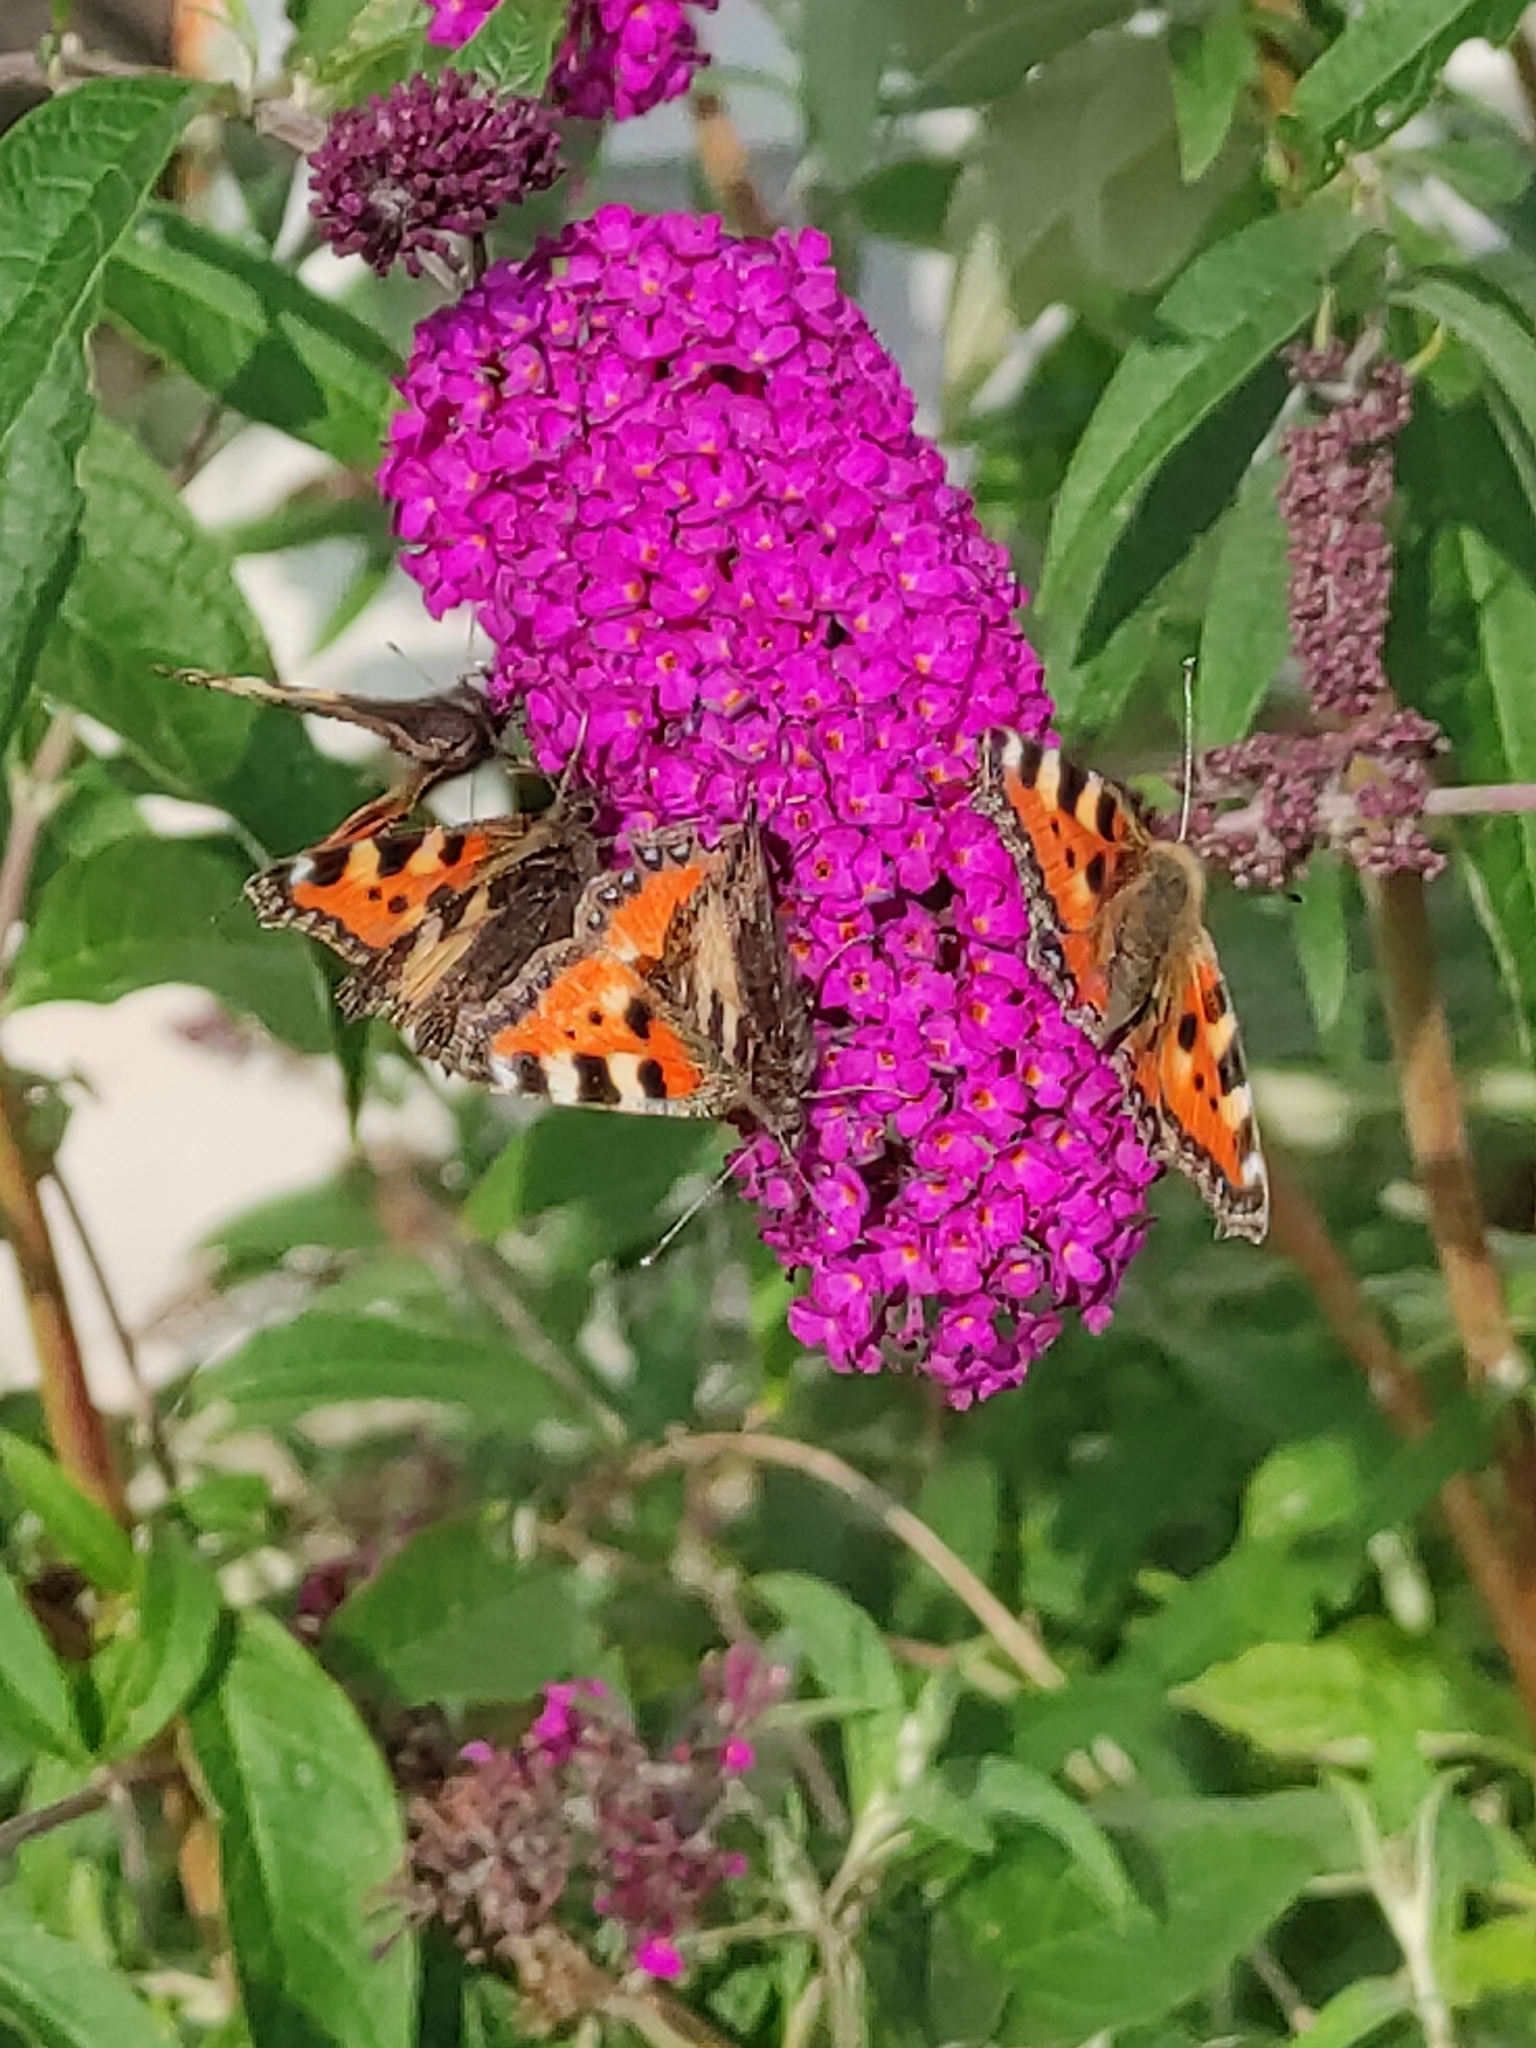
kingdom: Animalia
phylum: Arthropoda
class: Insecta
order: Lepidoptera
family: Nymphalidae
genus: Aglais
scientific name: Aglais urticae
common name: Small tortoiseshell
